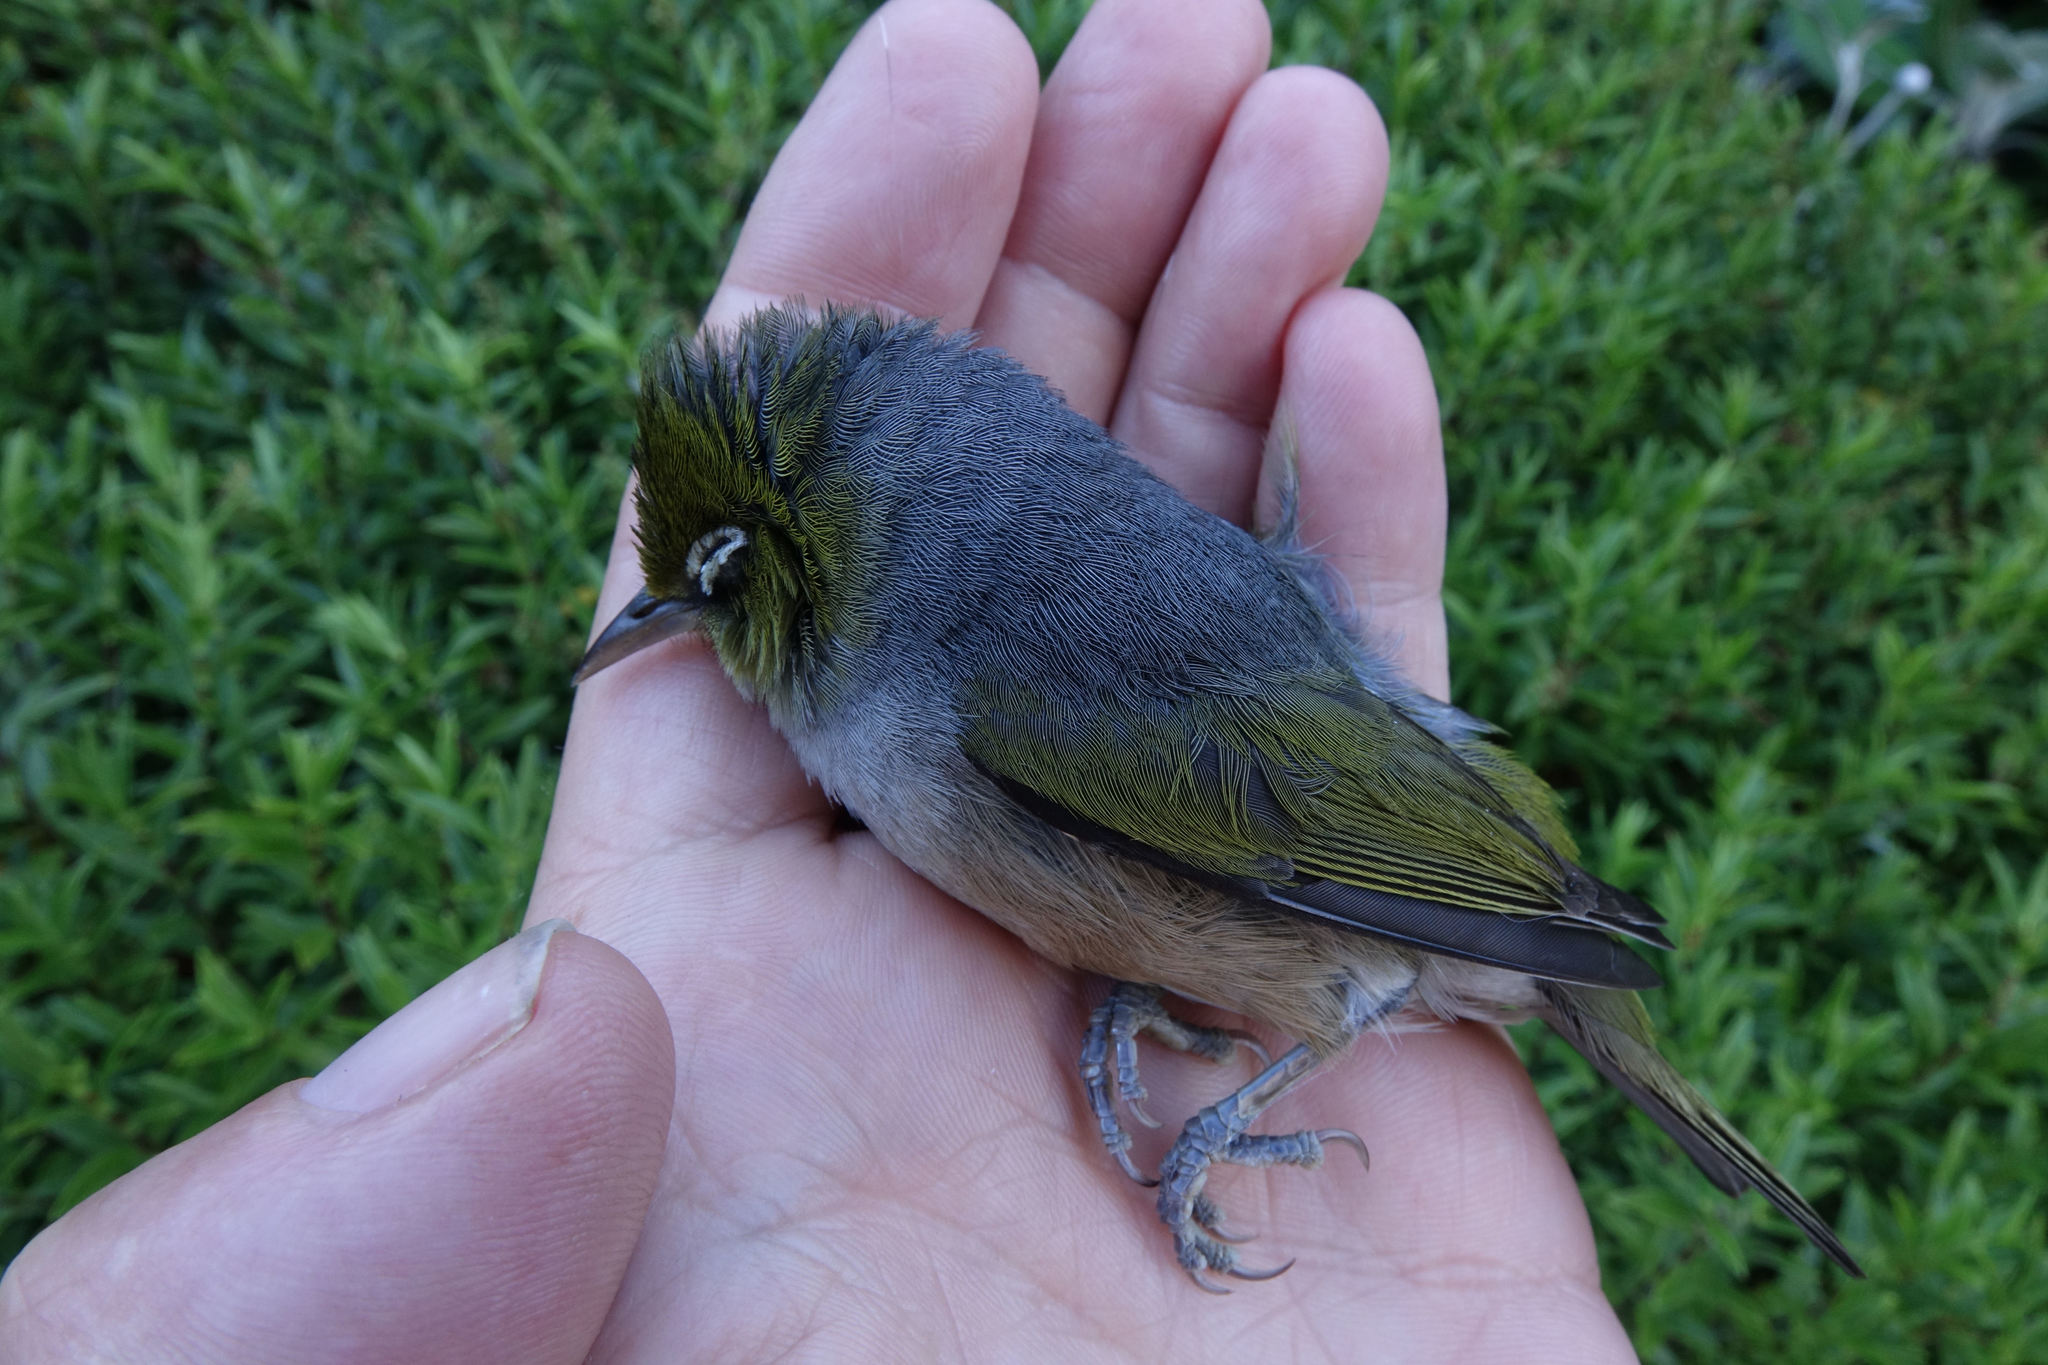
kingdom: Animalia
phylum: Chordata
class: Aves
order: Passeriformes
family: Zosteropidae
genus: Zosterops
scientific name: Zosterops lateralis
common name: Silvereye
